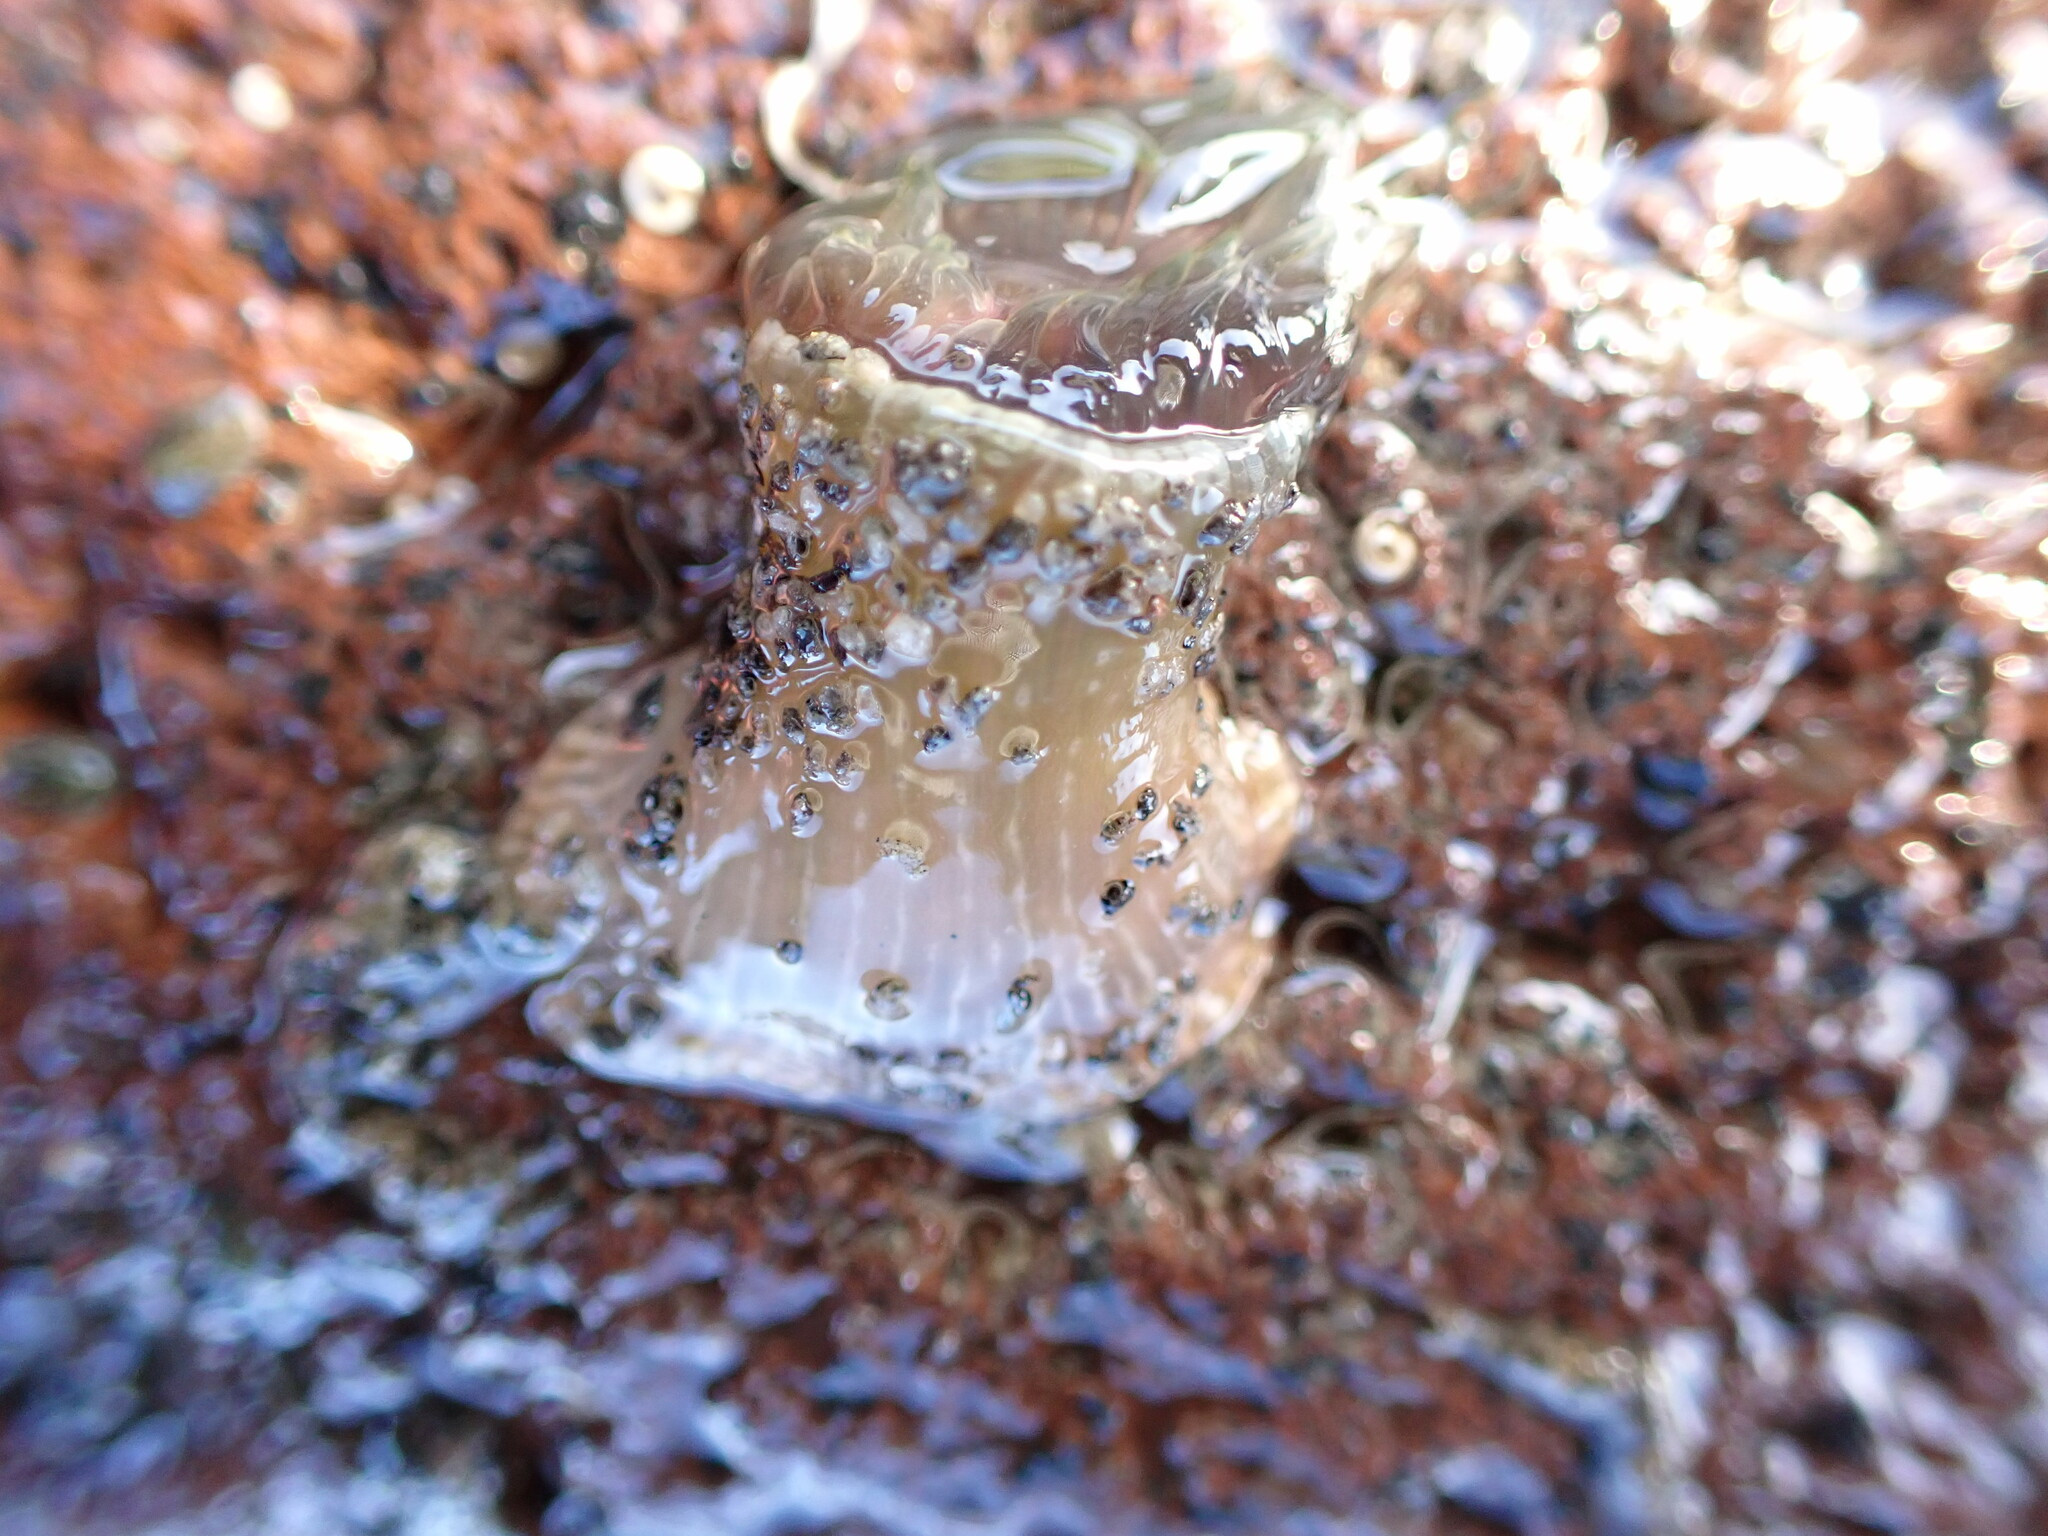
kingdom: Animalia
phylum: Cnidaria
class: Anthozoa
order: Actiniaria
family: Actiniidae
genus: Isactinia
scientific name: Isactinia olivacea
